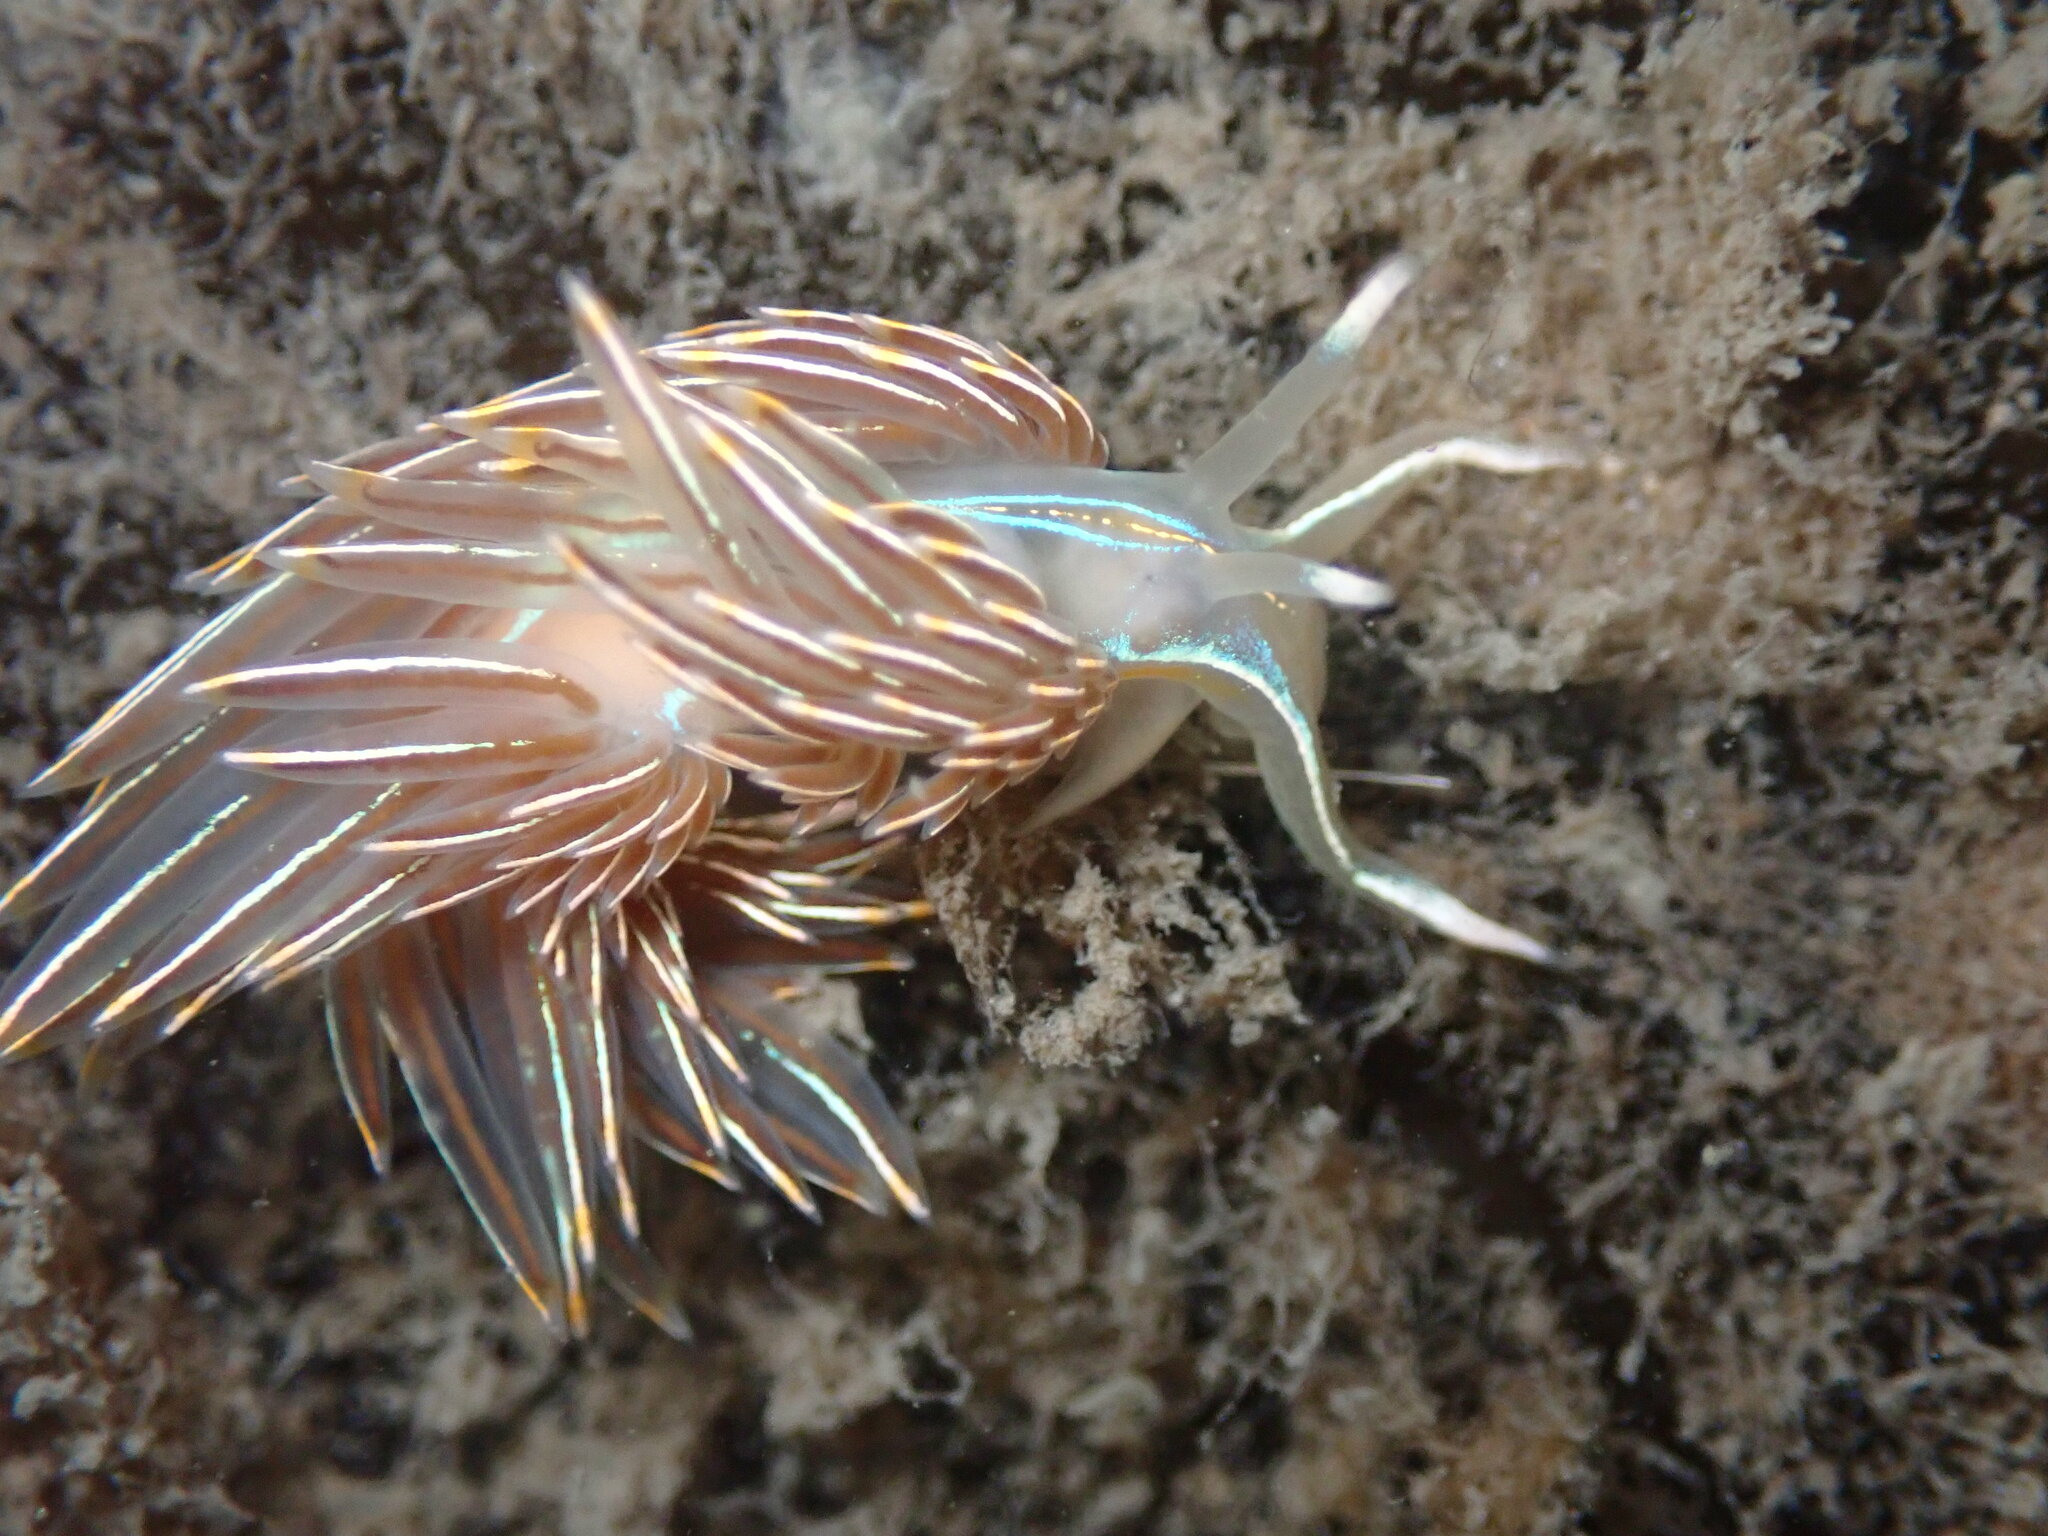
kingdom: Animalia
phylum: Mollusca
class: Gastropoda
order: Nudibranchia
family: Myrrhinidae
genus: Hermissenda
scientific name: Hermissenda crassicornis
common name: Hermissenda
